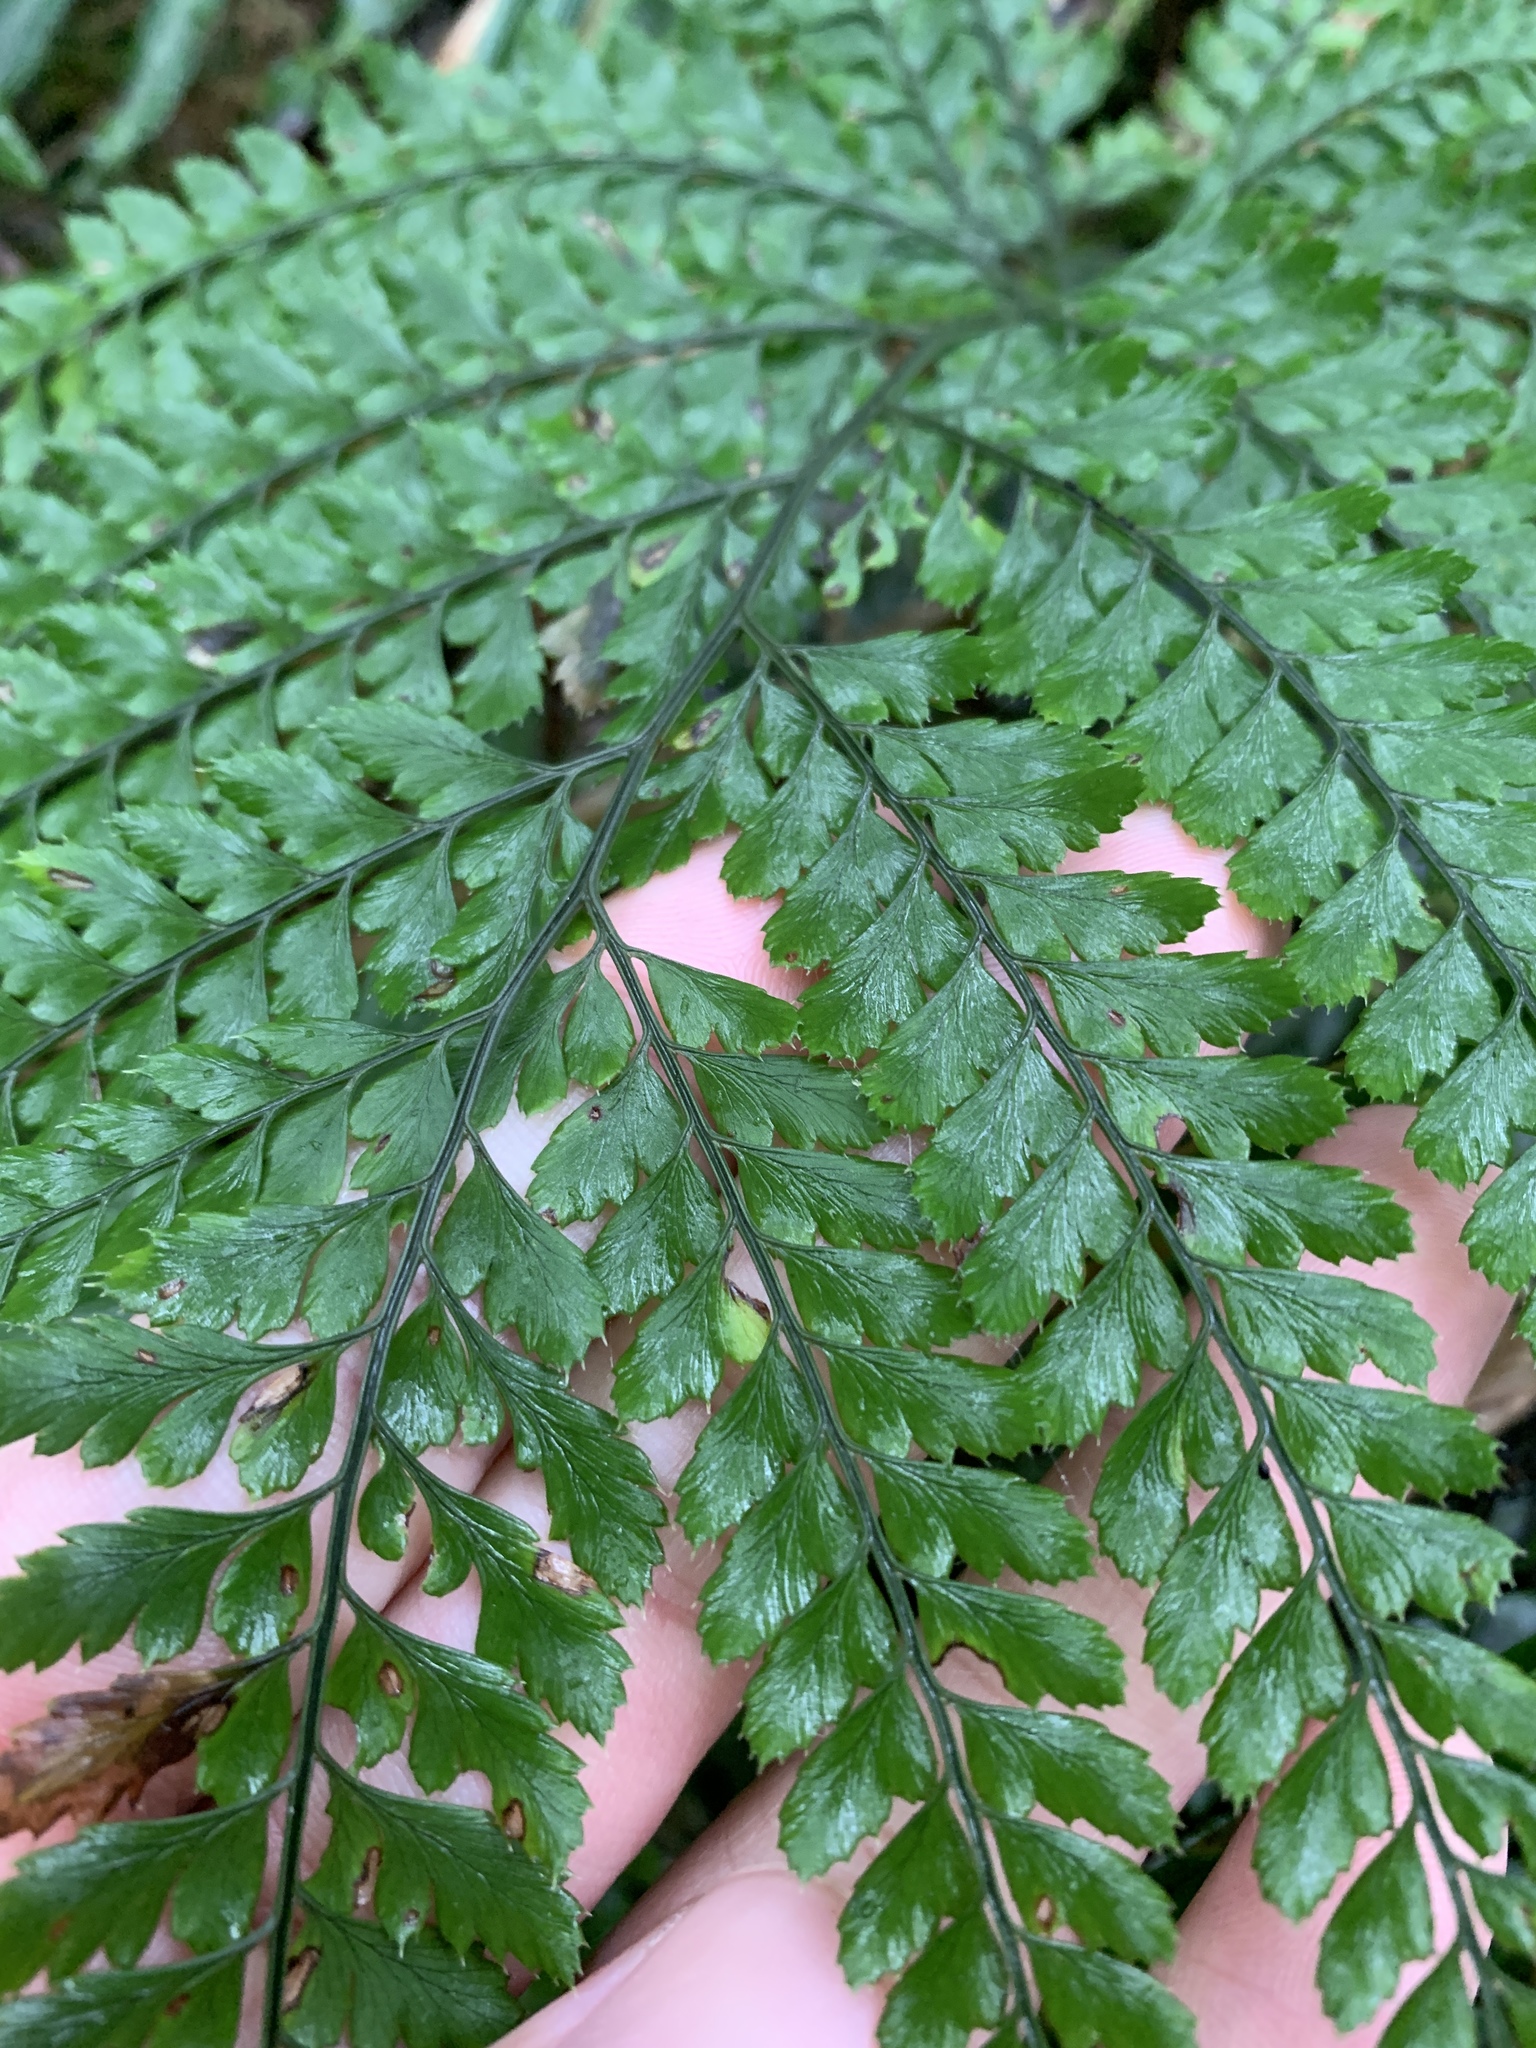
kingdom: Plantae
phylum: Tracheophyta
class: Polypodiopsida
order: Polypodiales
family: Dryopteridaceae
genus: Arachniodes
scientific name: Arachniodes aristata
